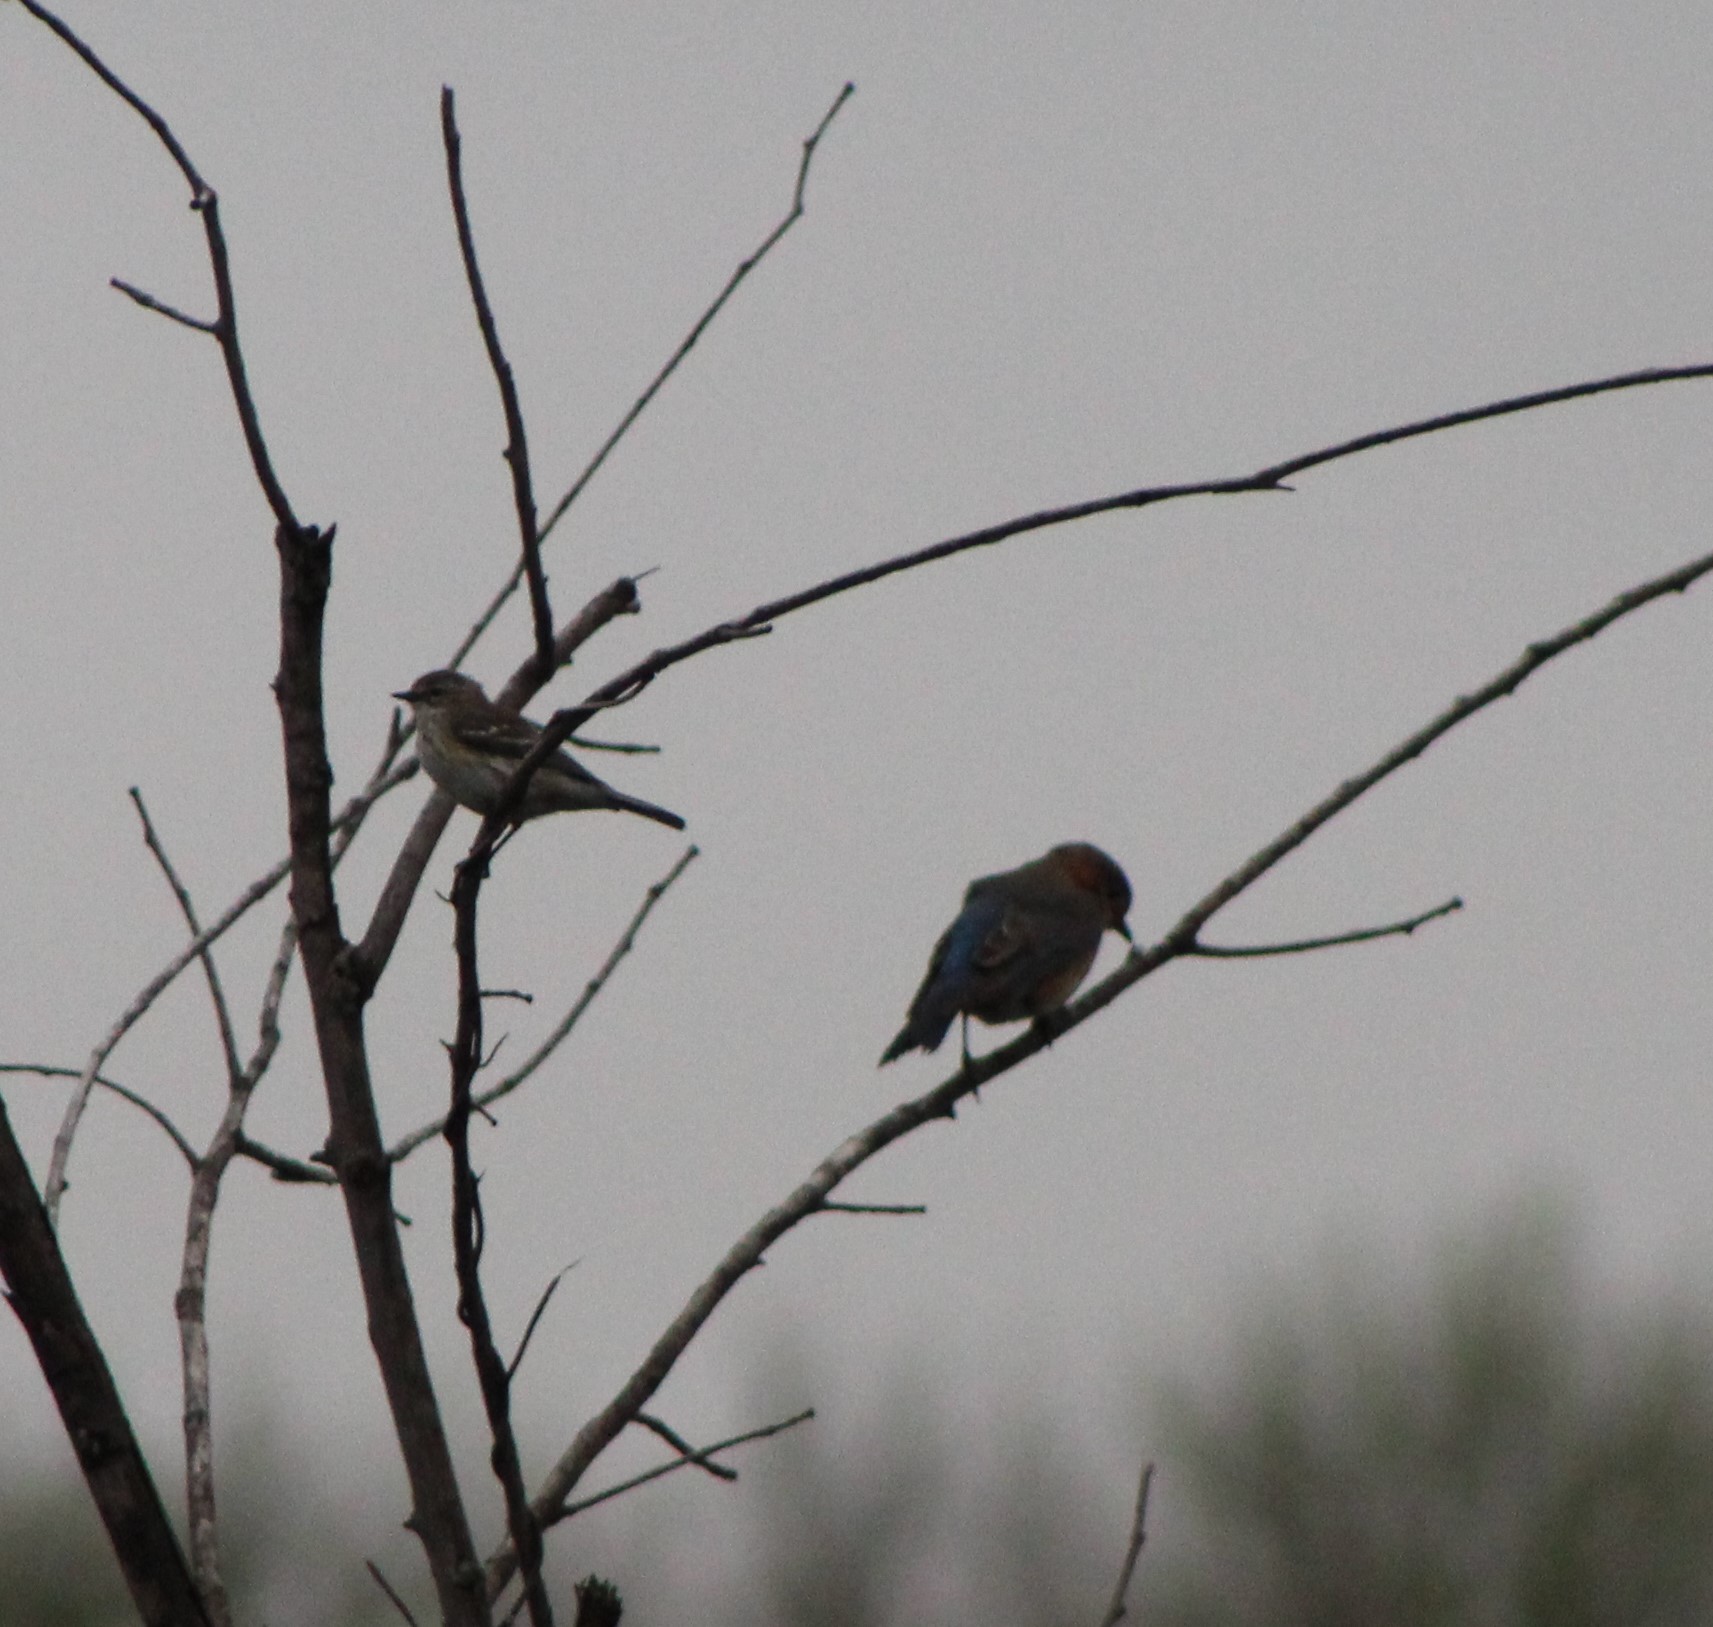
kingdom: Animalia
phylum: Chordata
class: Aves
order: Passeriformes
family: Parulidae
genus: Setophaga
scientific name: Setophaga coronata
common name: Myrtle warbler
